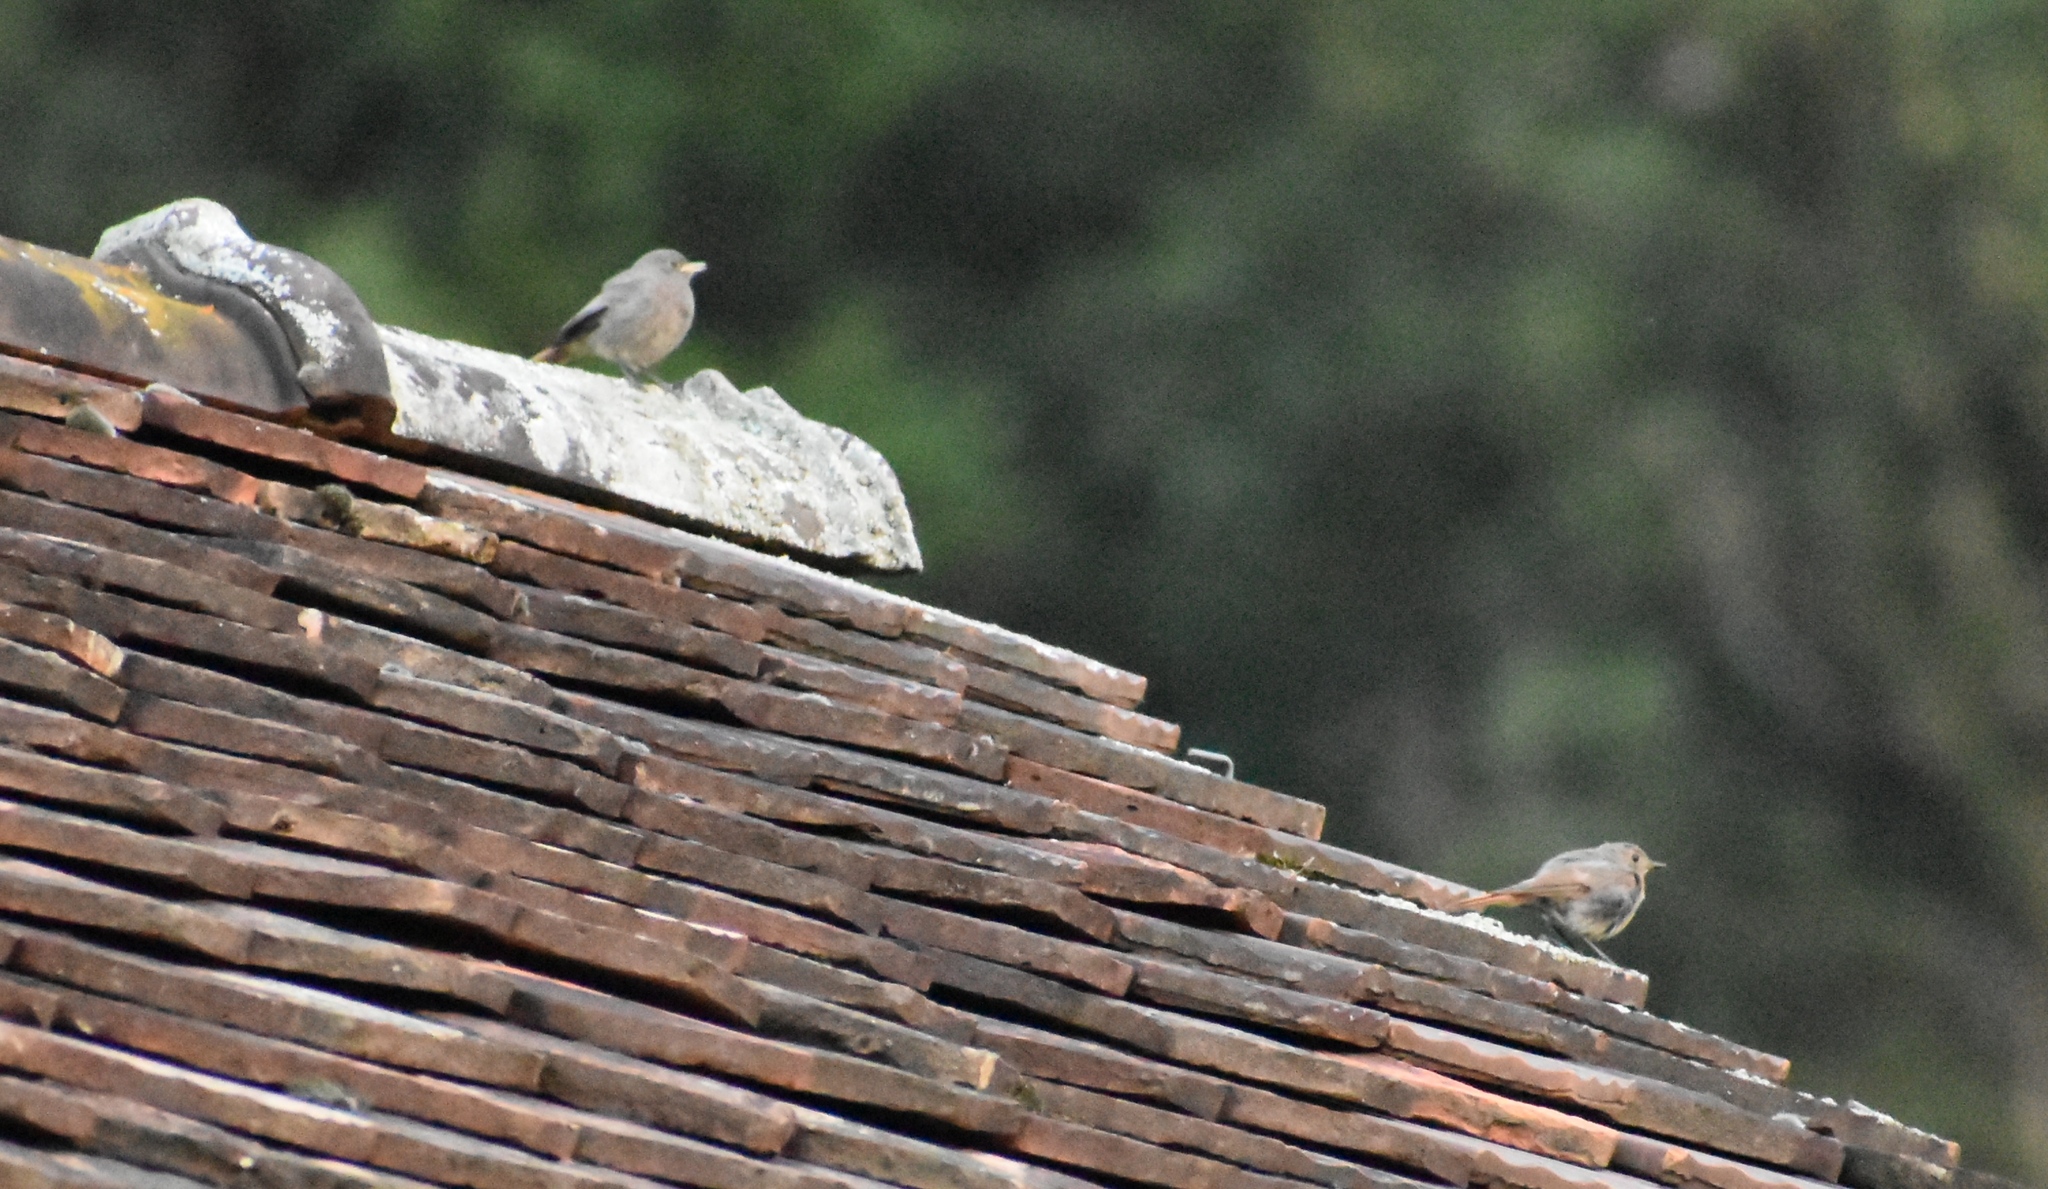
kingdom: Animalia
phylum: Chordata
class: Aves
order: Passeriformes
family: Muscicapidae
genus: Phoenicurus
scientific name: Phoenicurus ochruros
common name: Black redstart
